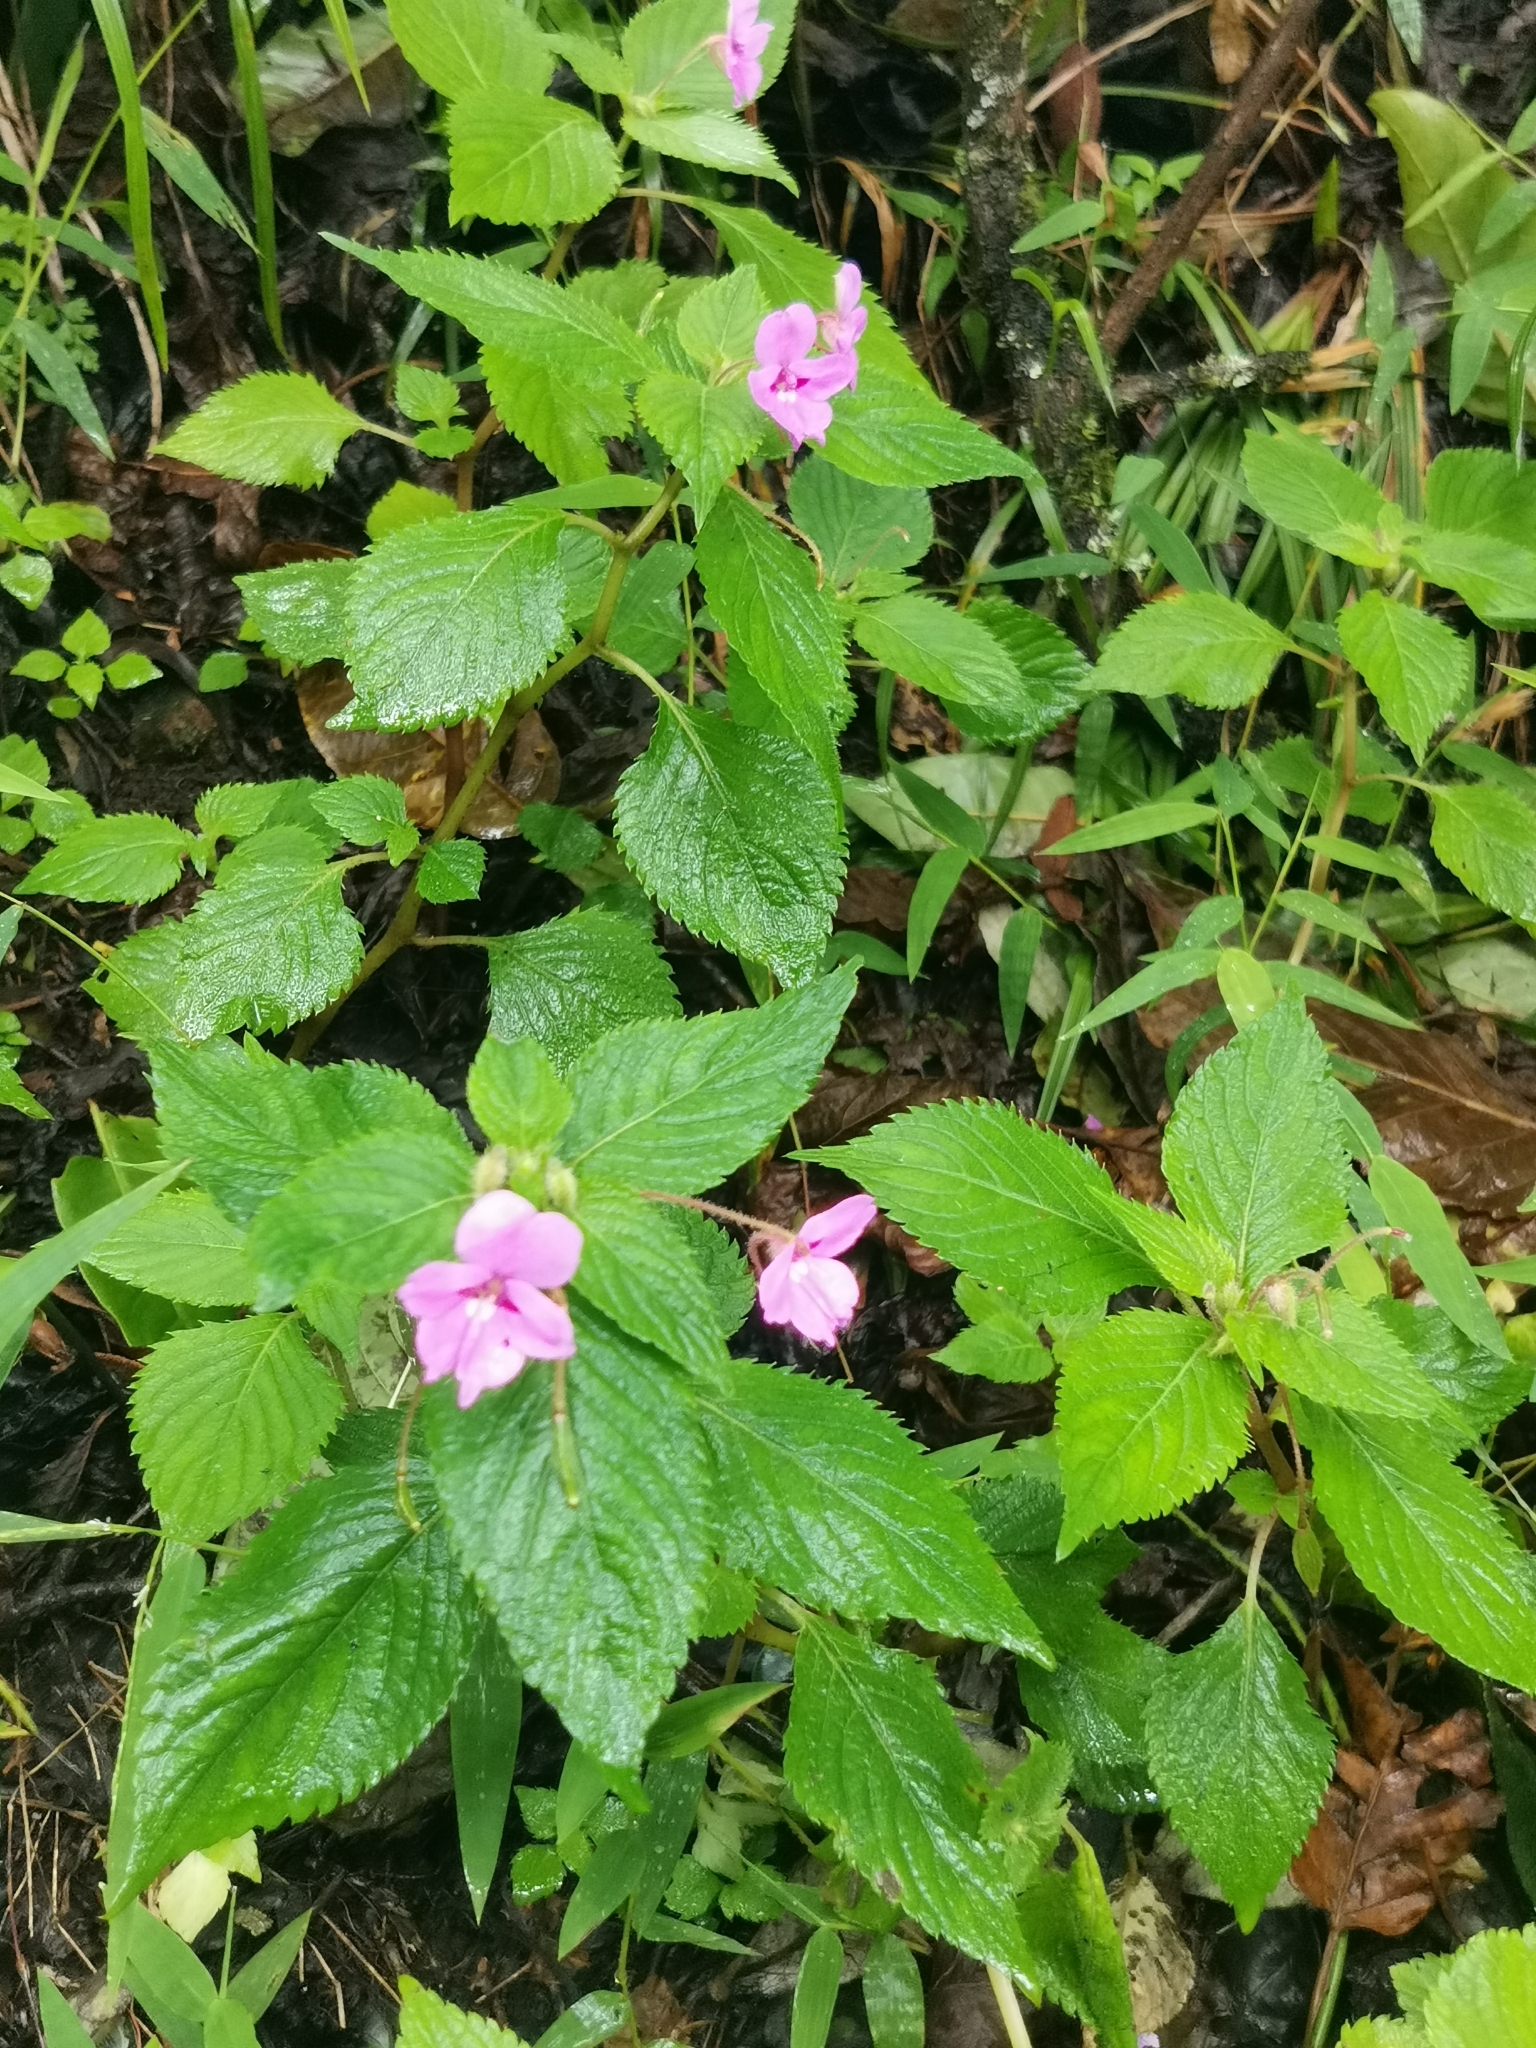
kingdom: Plantae
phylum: Tracheophyta
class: Magnoliopsida
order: Ericales
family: Balsaminaceae
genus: Impatiens
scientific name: Impatiens sylvicola
